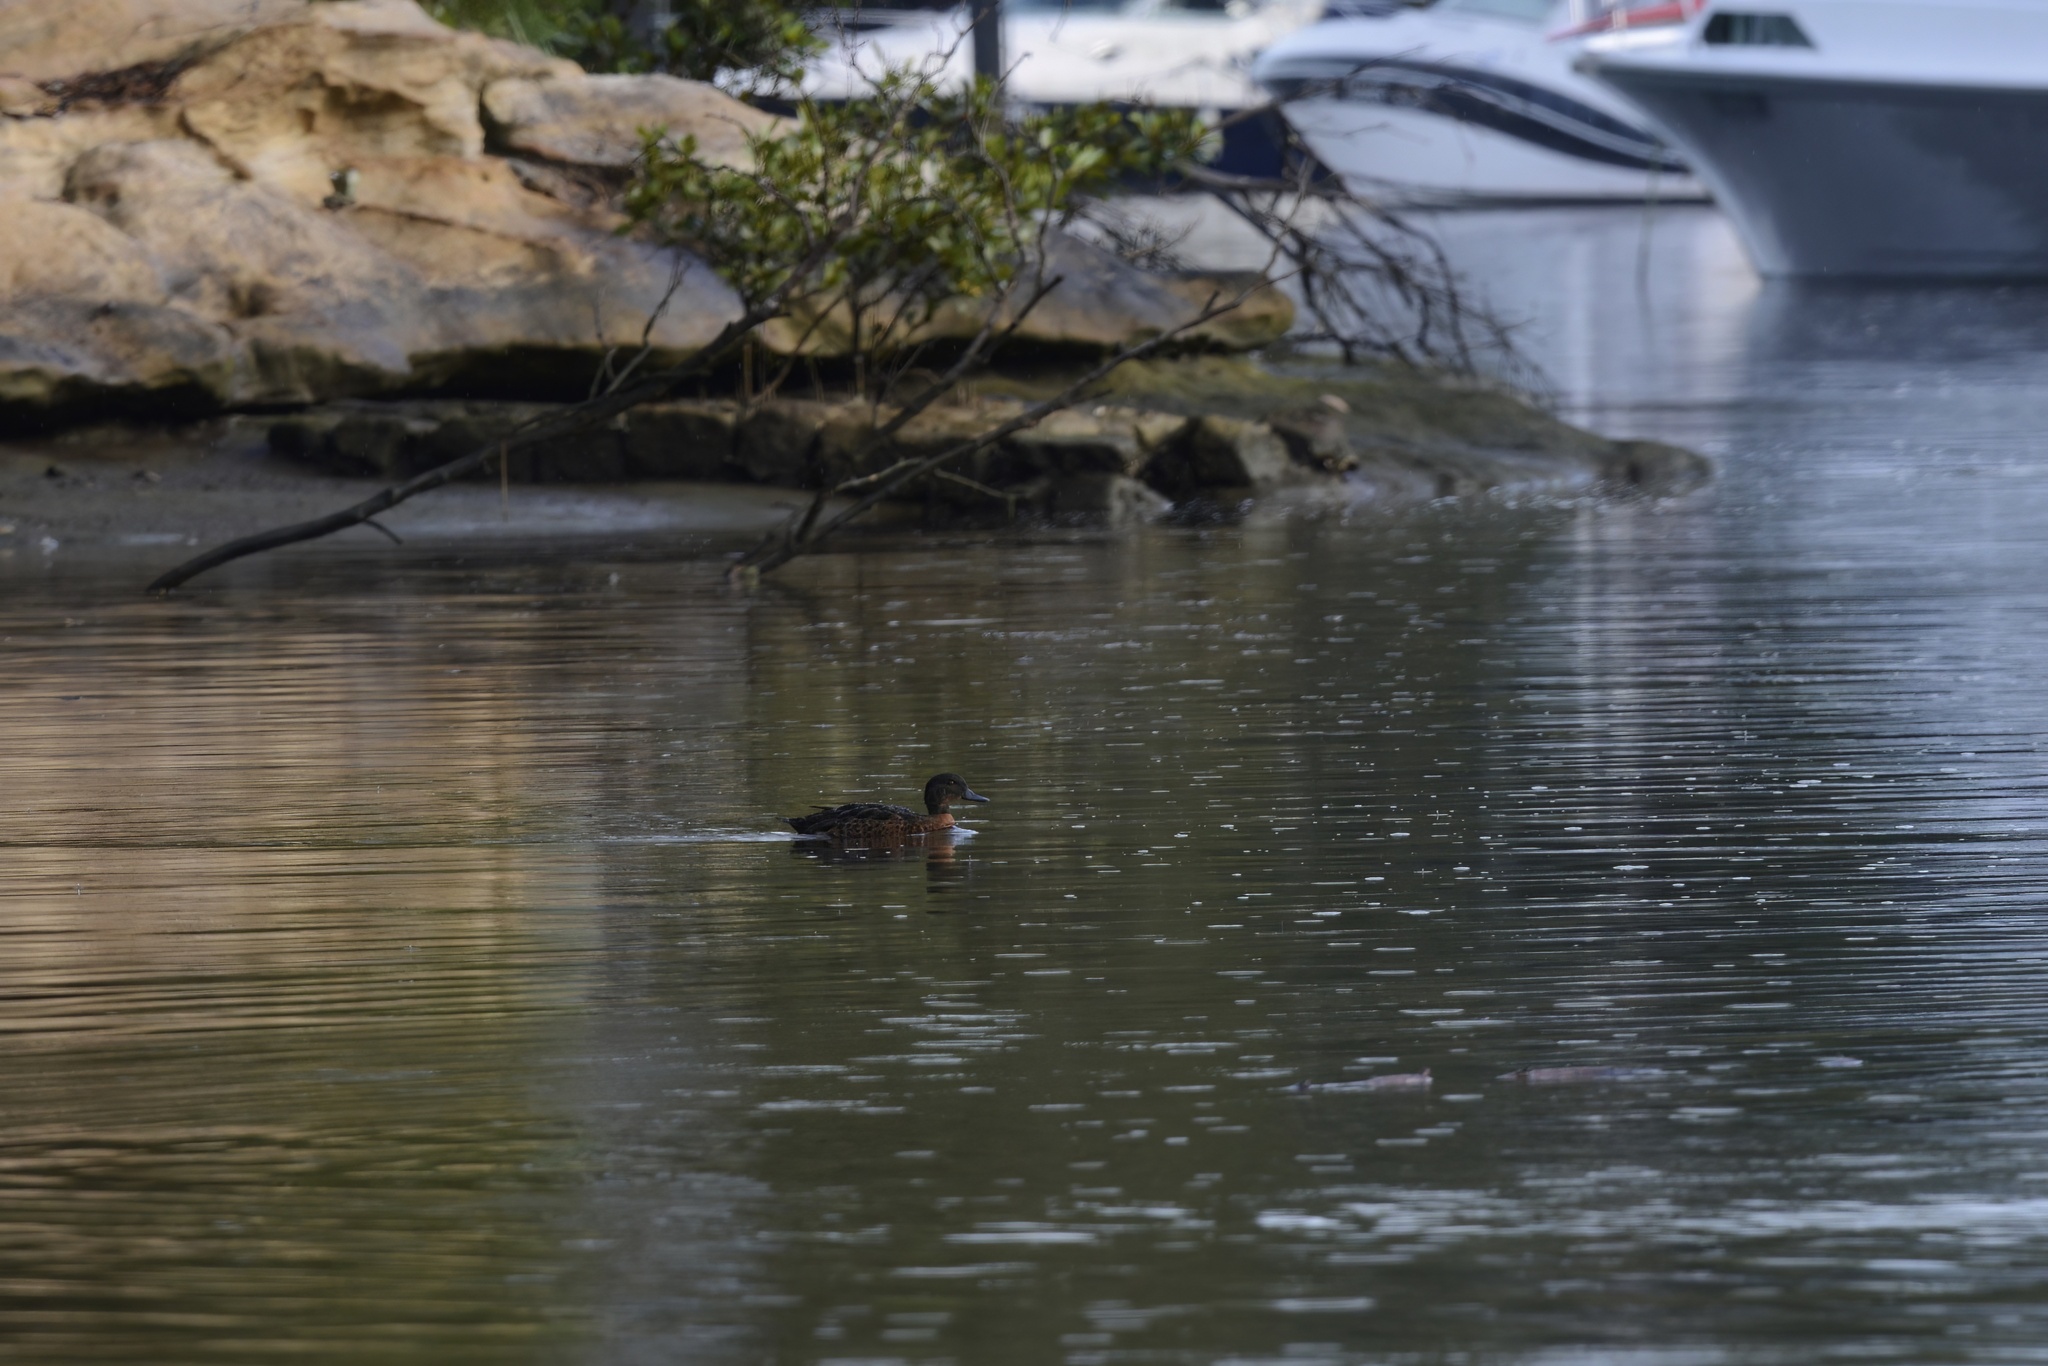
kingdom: Animalia
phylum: Chordata
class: Aves
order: Anseriformes
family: Anatidae
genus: Anas
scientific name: Anas castanea
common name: Chestnut teal
